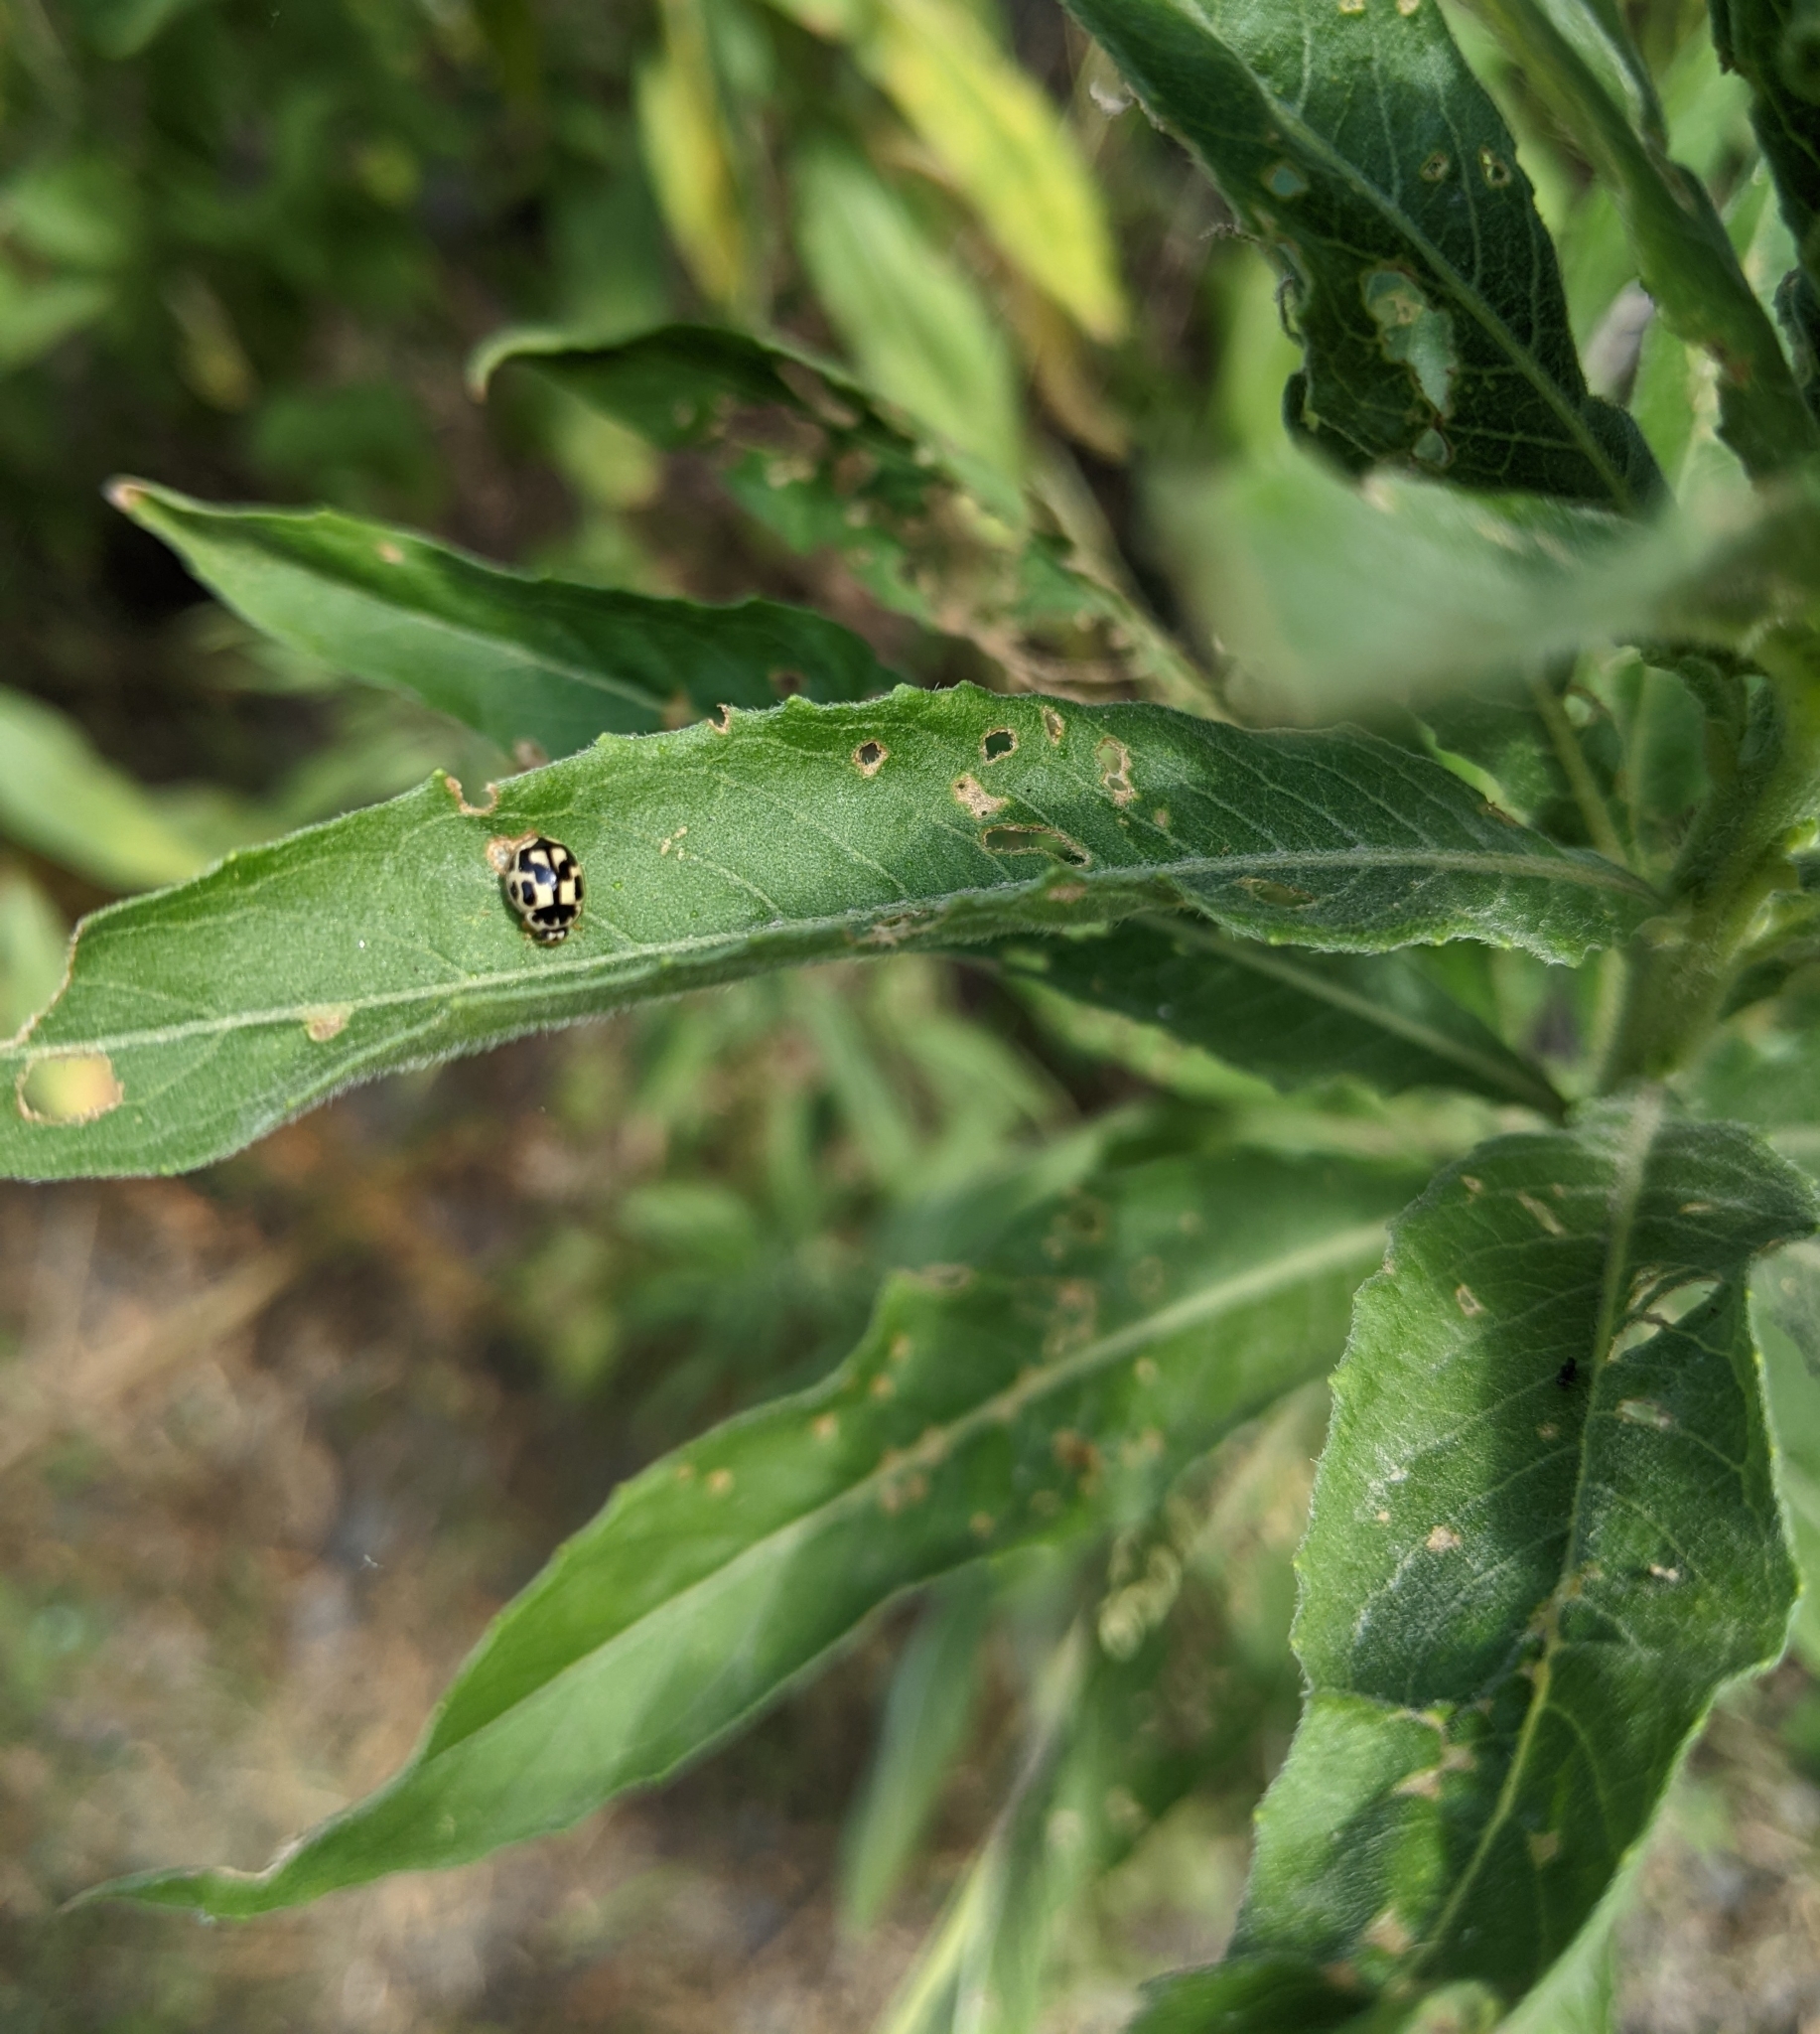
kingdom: Animalia
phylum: Arthropoda
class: Insecta
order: Coleoptera
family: Coccinellidae
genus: Propylaea
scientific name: Propylaea quatuordecimpunctata
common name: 14-spotted ladybird beetle
